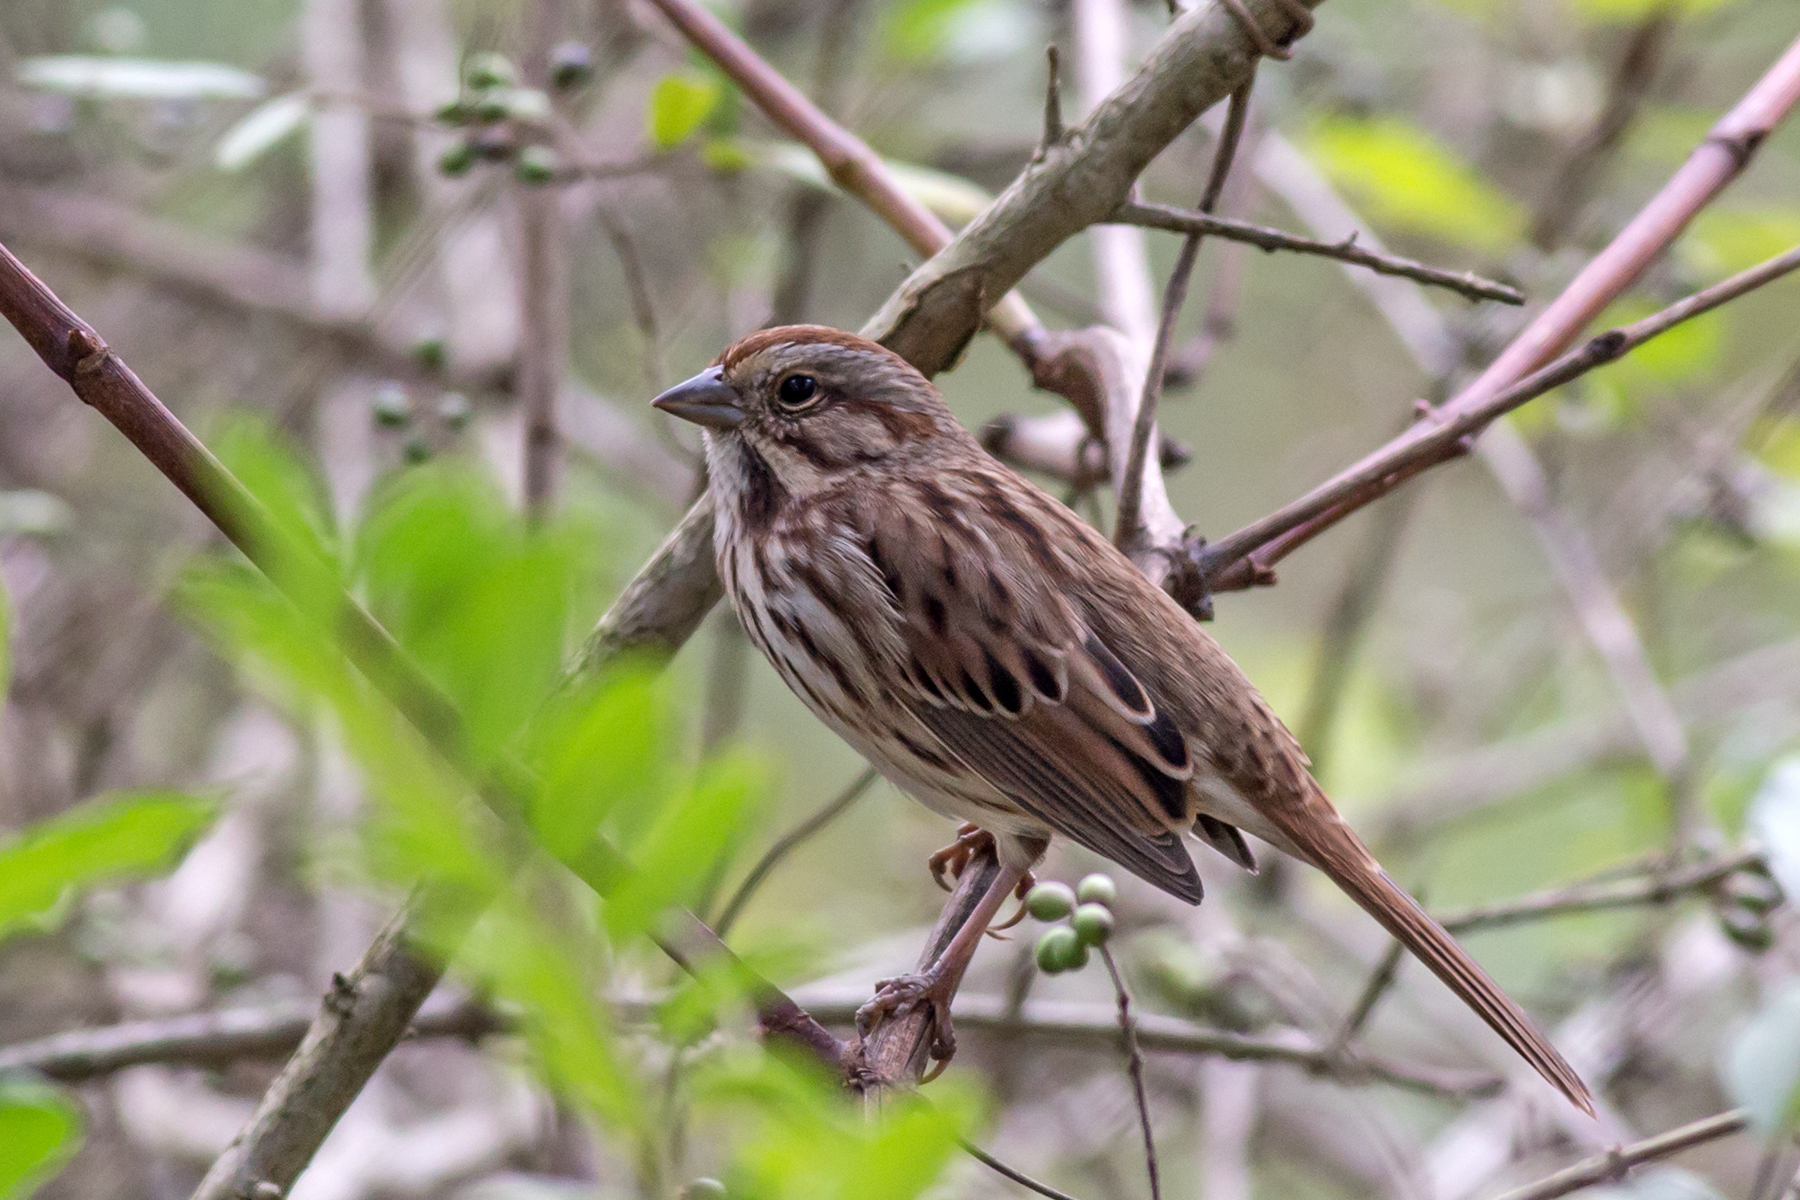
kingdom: Animalia
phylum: Chordata
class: Aves
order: Passeriformes
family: Passerellidae
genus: Melospiza
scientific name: Melospiza melodia
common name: Song sparrow
